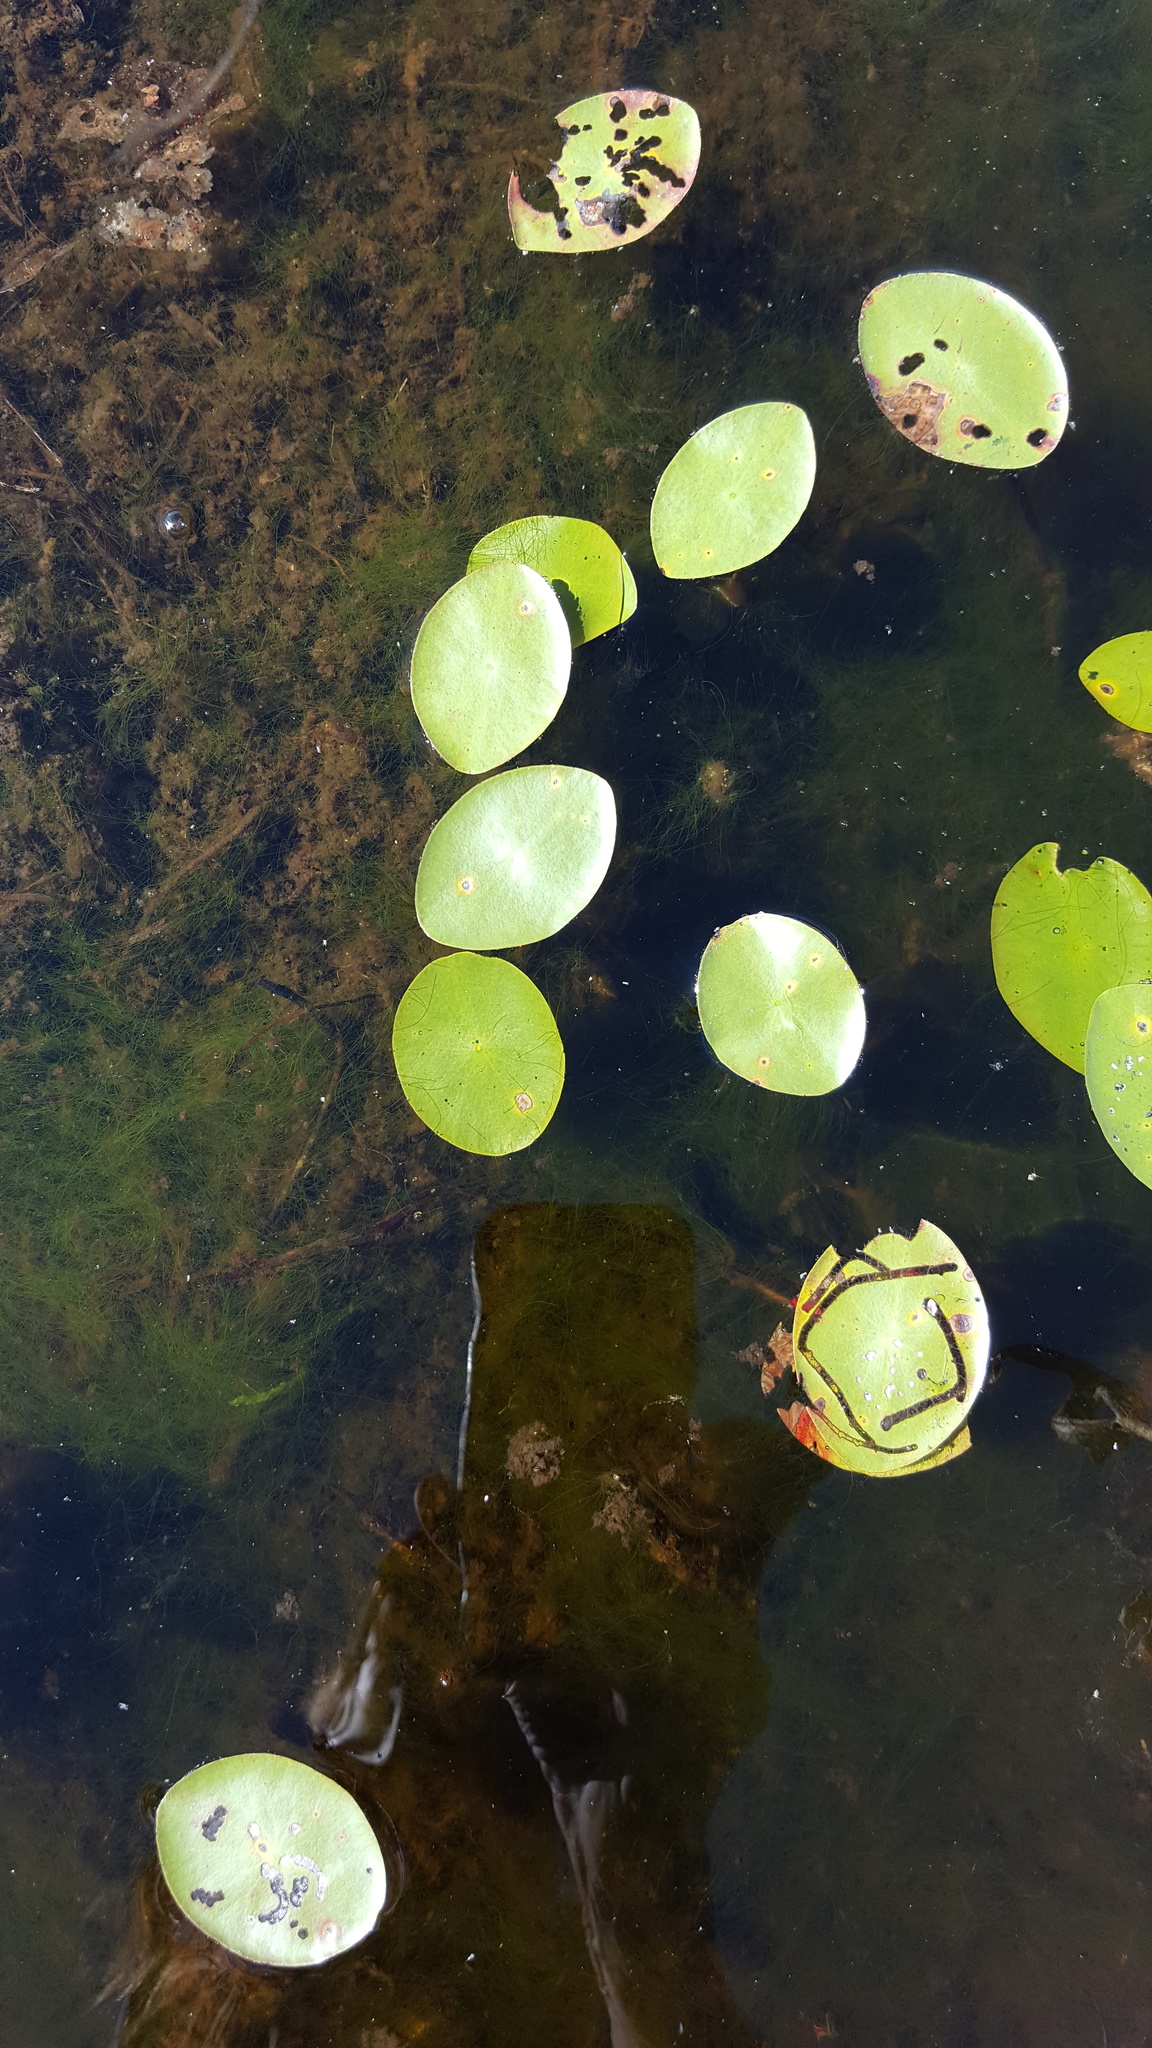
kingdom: Plantae
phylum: Tracheophyta
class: Magnoliopsida
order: Nymphaeales
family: Cabombaceae
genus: Brasenia
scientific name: Brasenia schreberi
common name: Water-shield
